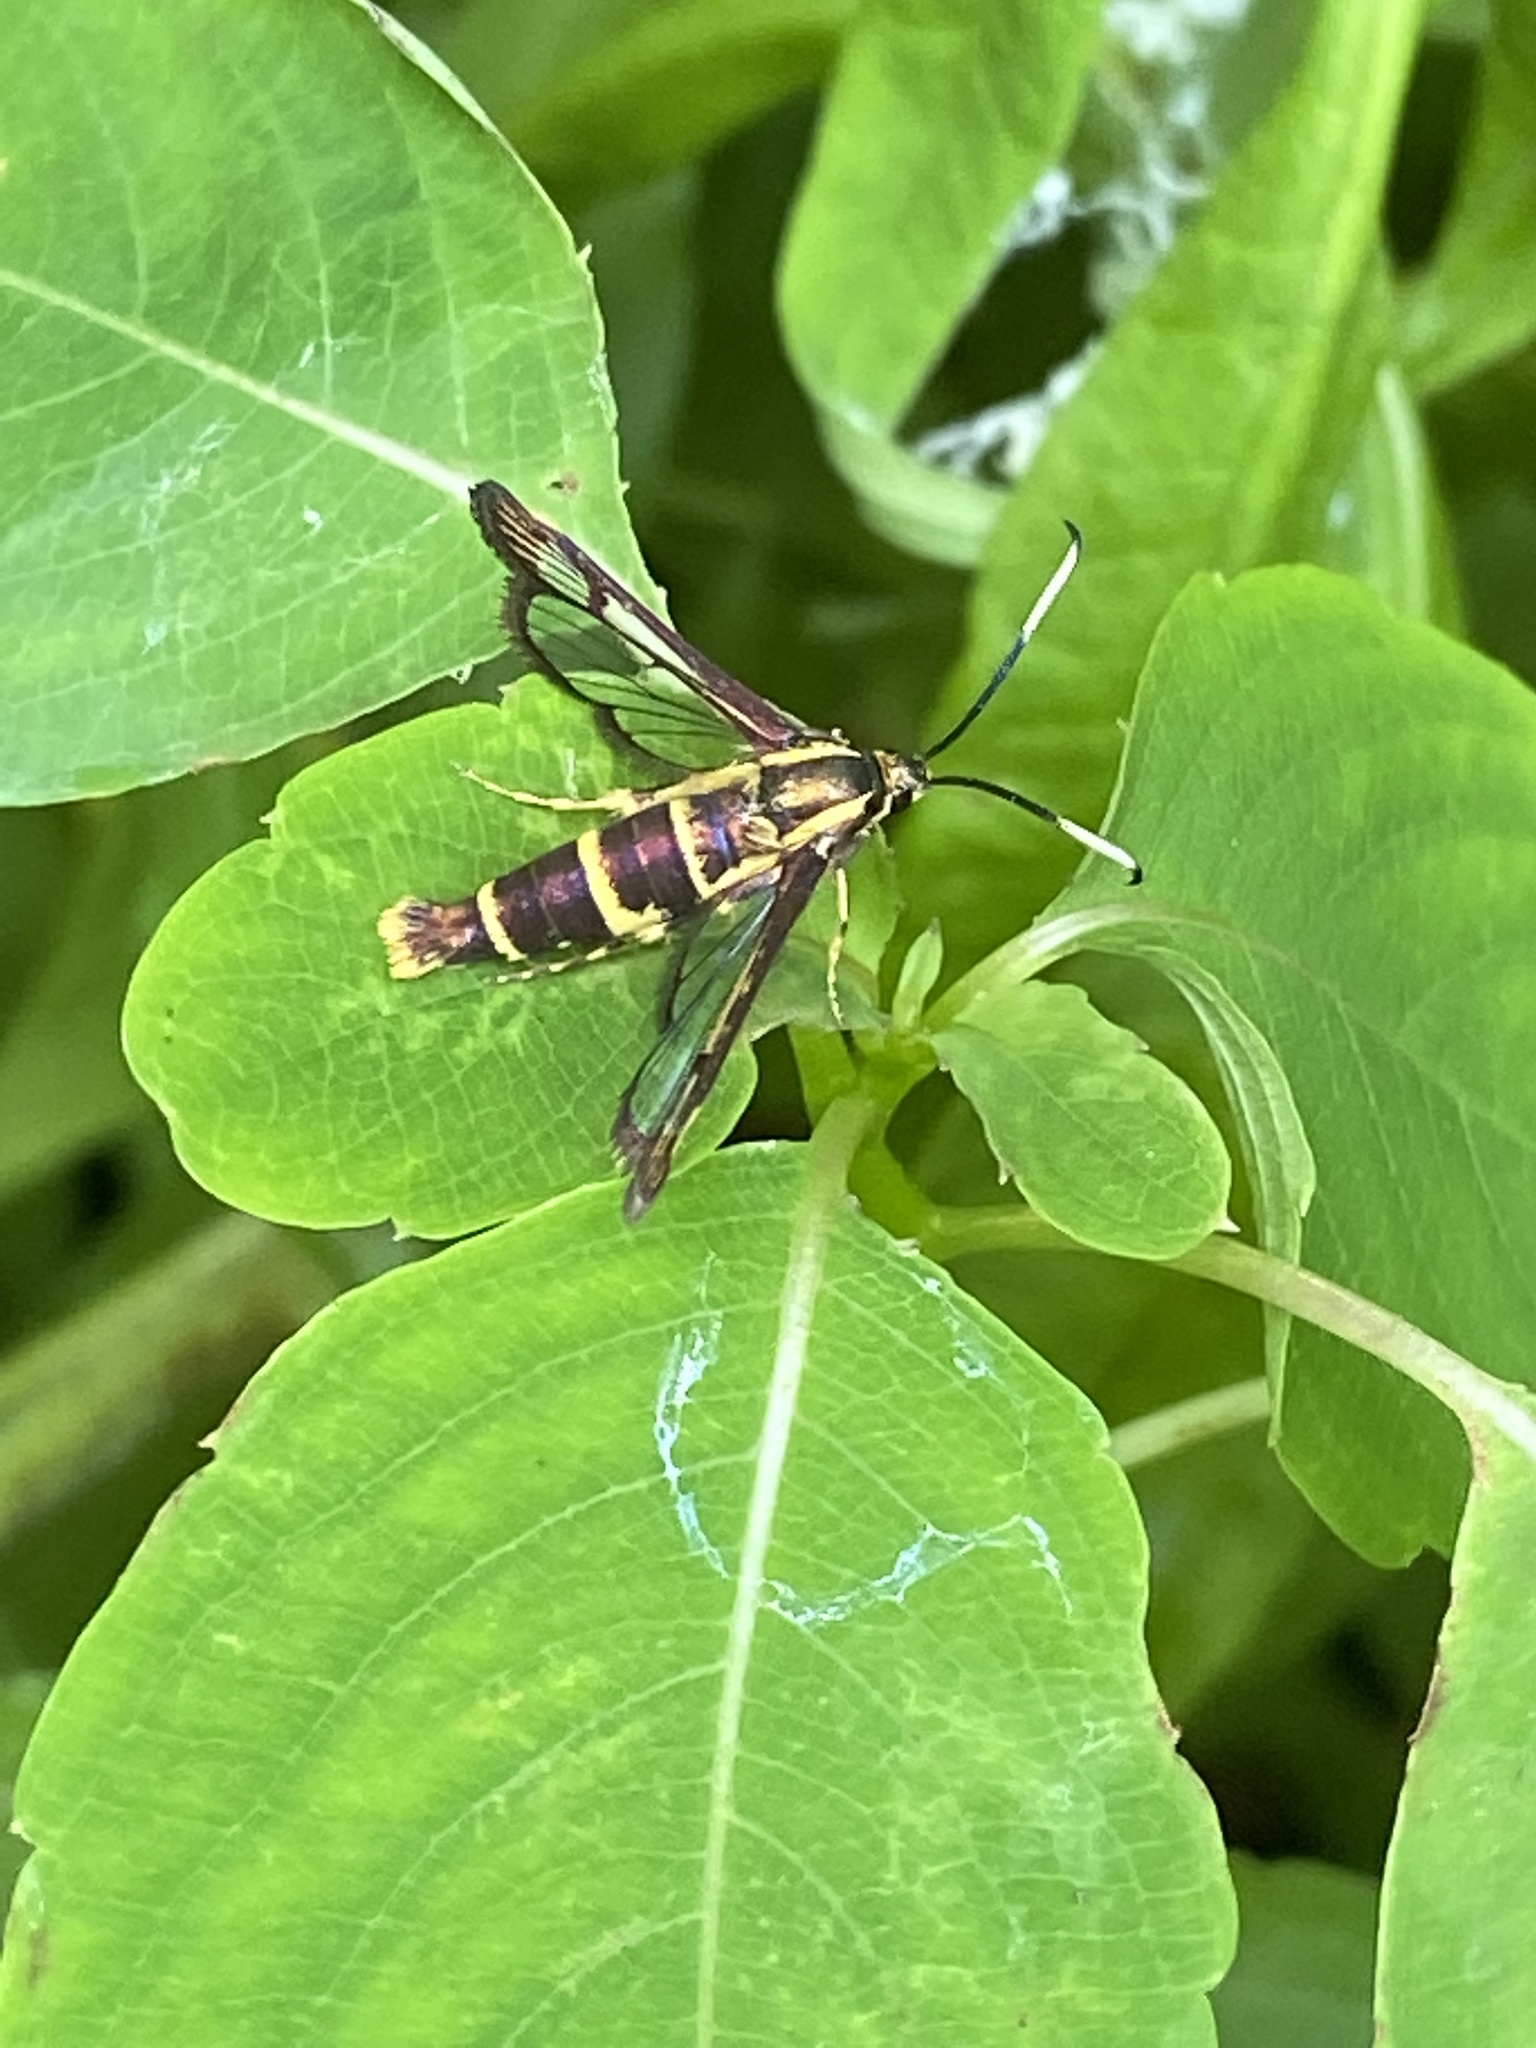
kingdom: Animalia
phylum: Arthropoda
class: Insecta
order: Lepidoptera
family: Sesiidae
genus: Carmenta
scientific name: Carmenta bassiformis
